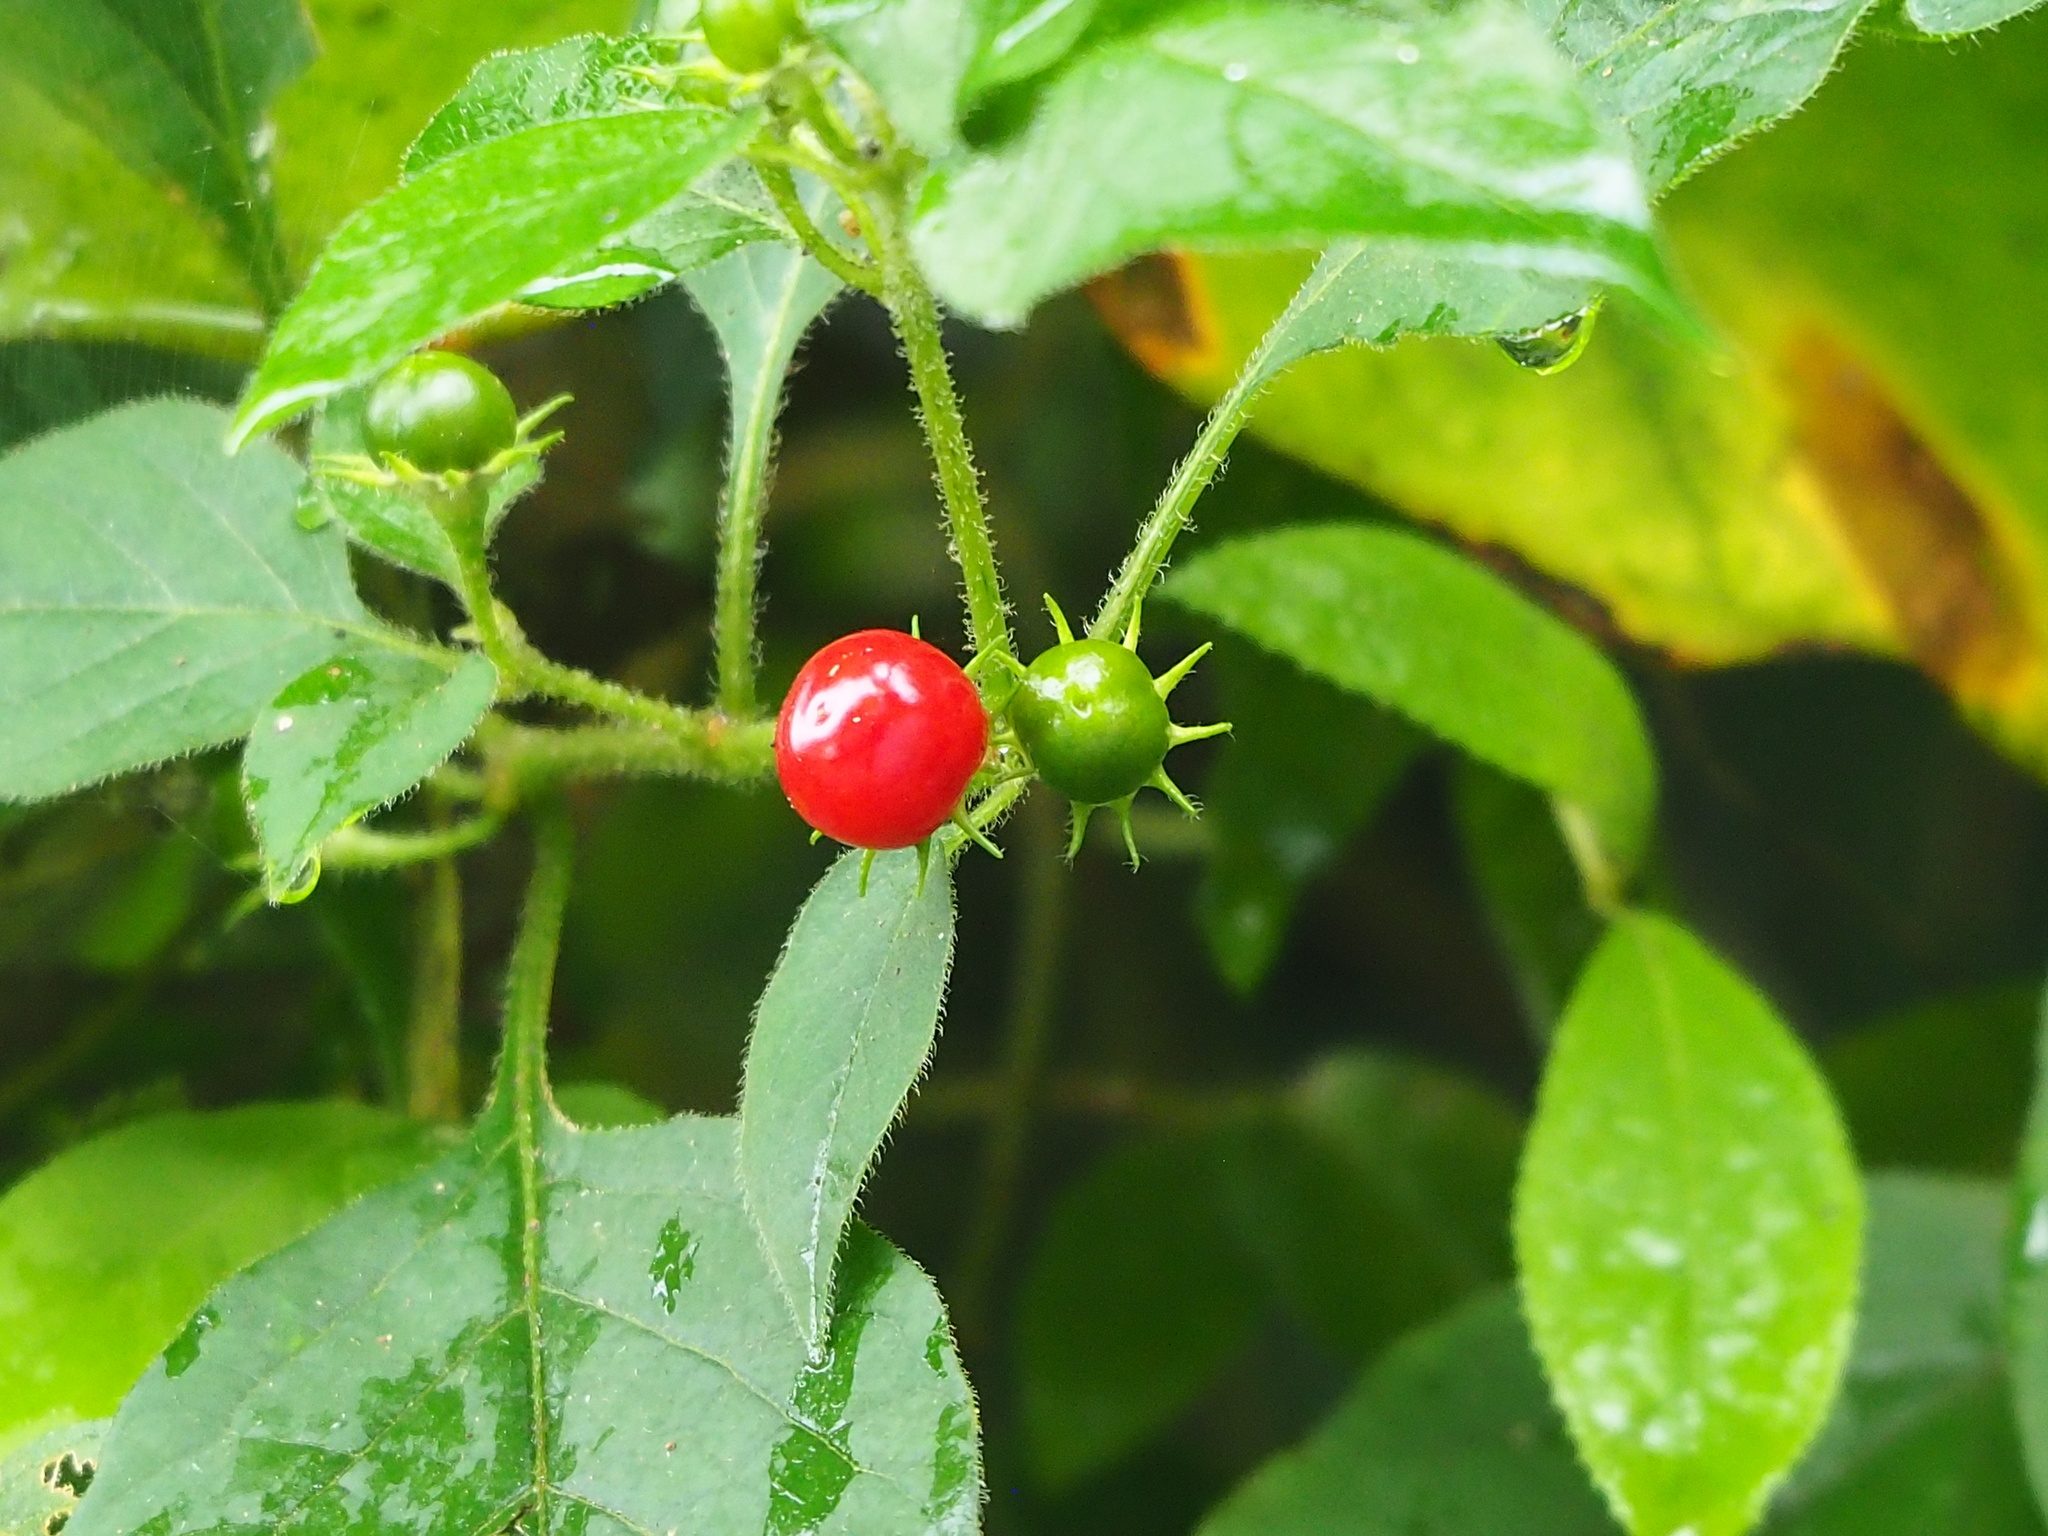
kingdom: Plantae
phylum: Tracheophyta
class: Magnoliopsida
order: Solanales
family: Solanaceae
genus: Lycianthes
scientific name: Lycianthes biflora
